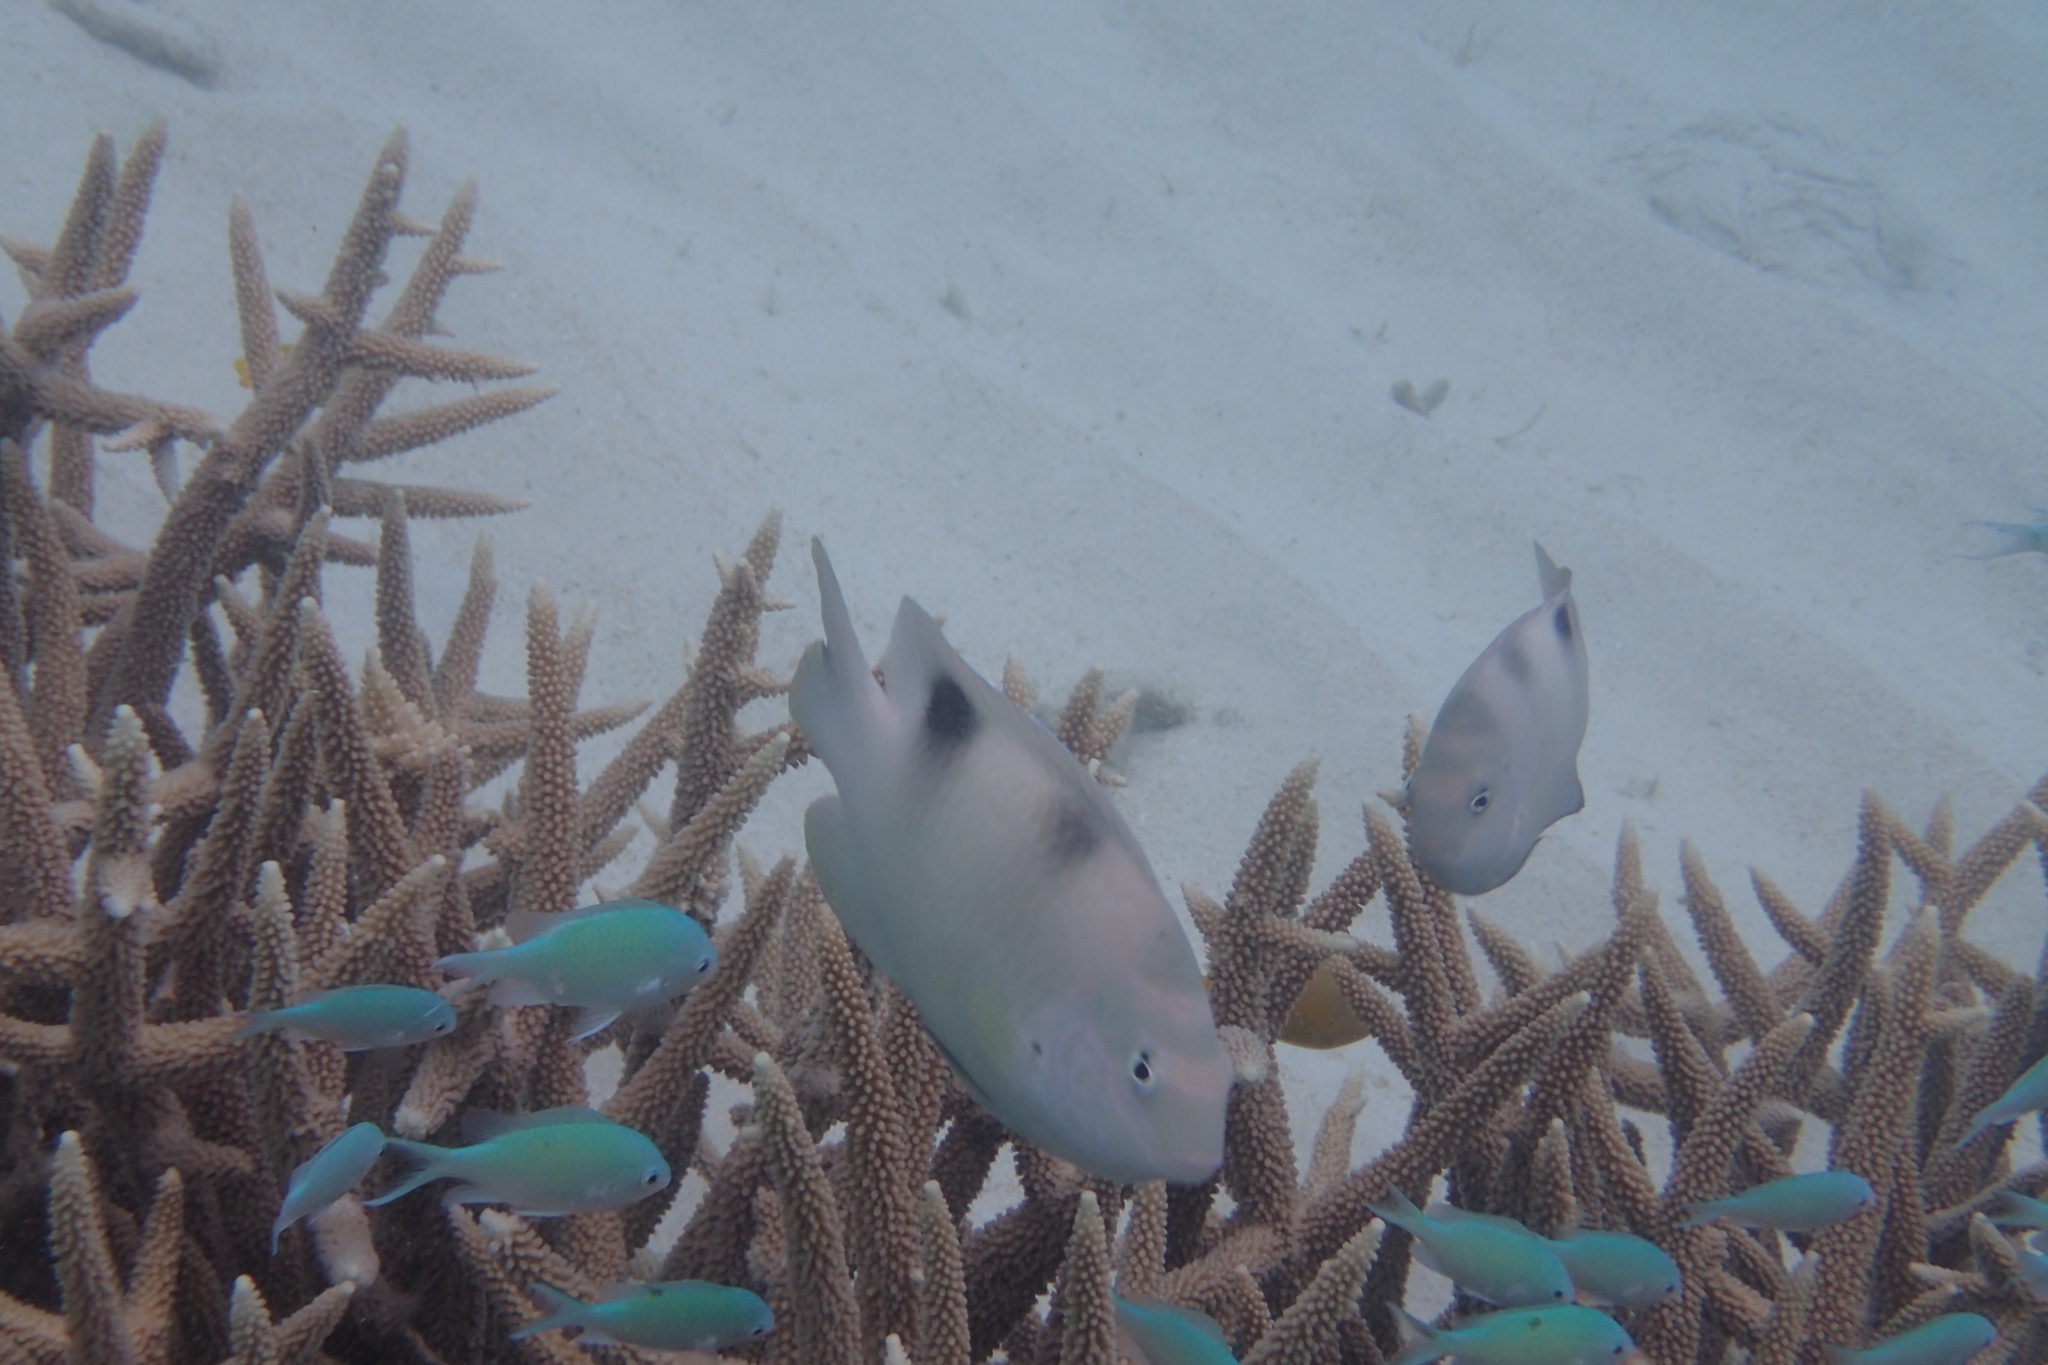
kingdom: Animalia
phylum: Chordata
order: Perciformes
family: Pomacentridae
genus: Dischistodus
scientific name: Dischistodus perspicillatus
